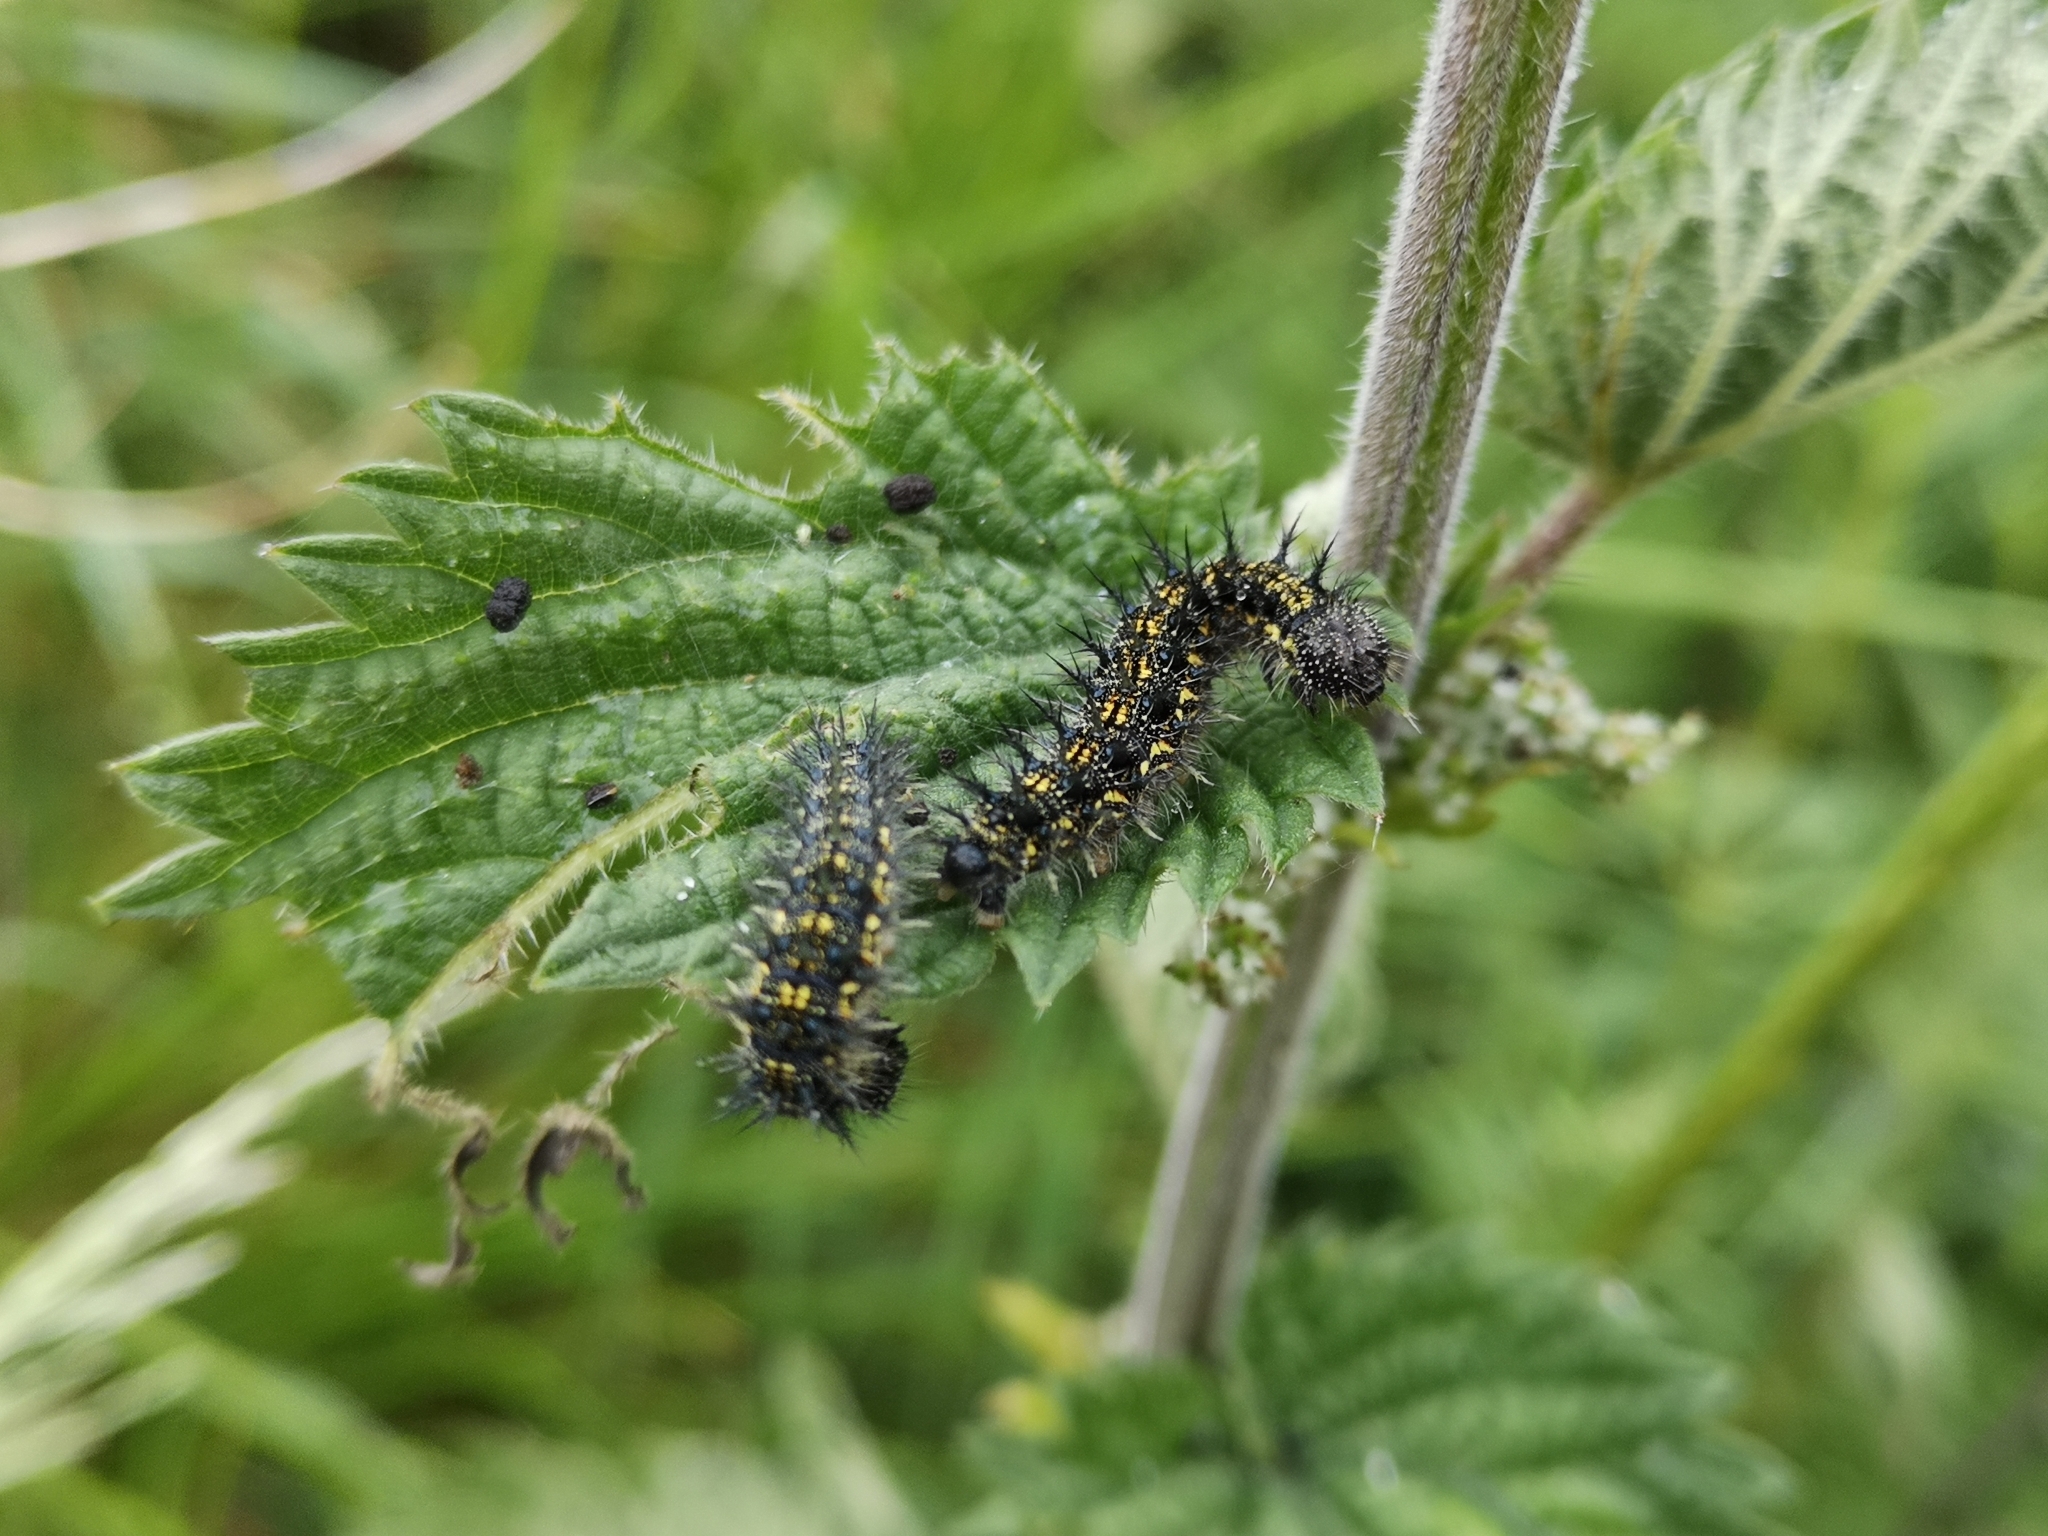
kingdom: Animalia
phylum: Arthropoda
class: Insecta
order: Lepidoptera
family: Nymphalidae
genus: Aglais
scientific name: Aglais urticae
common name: Small tortoiseshell
